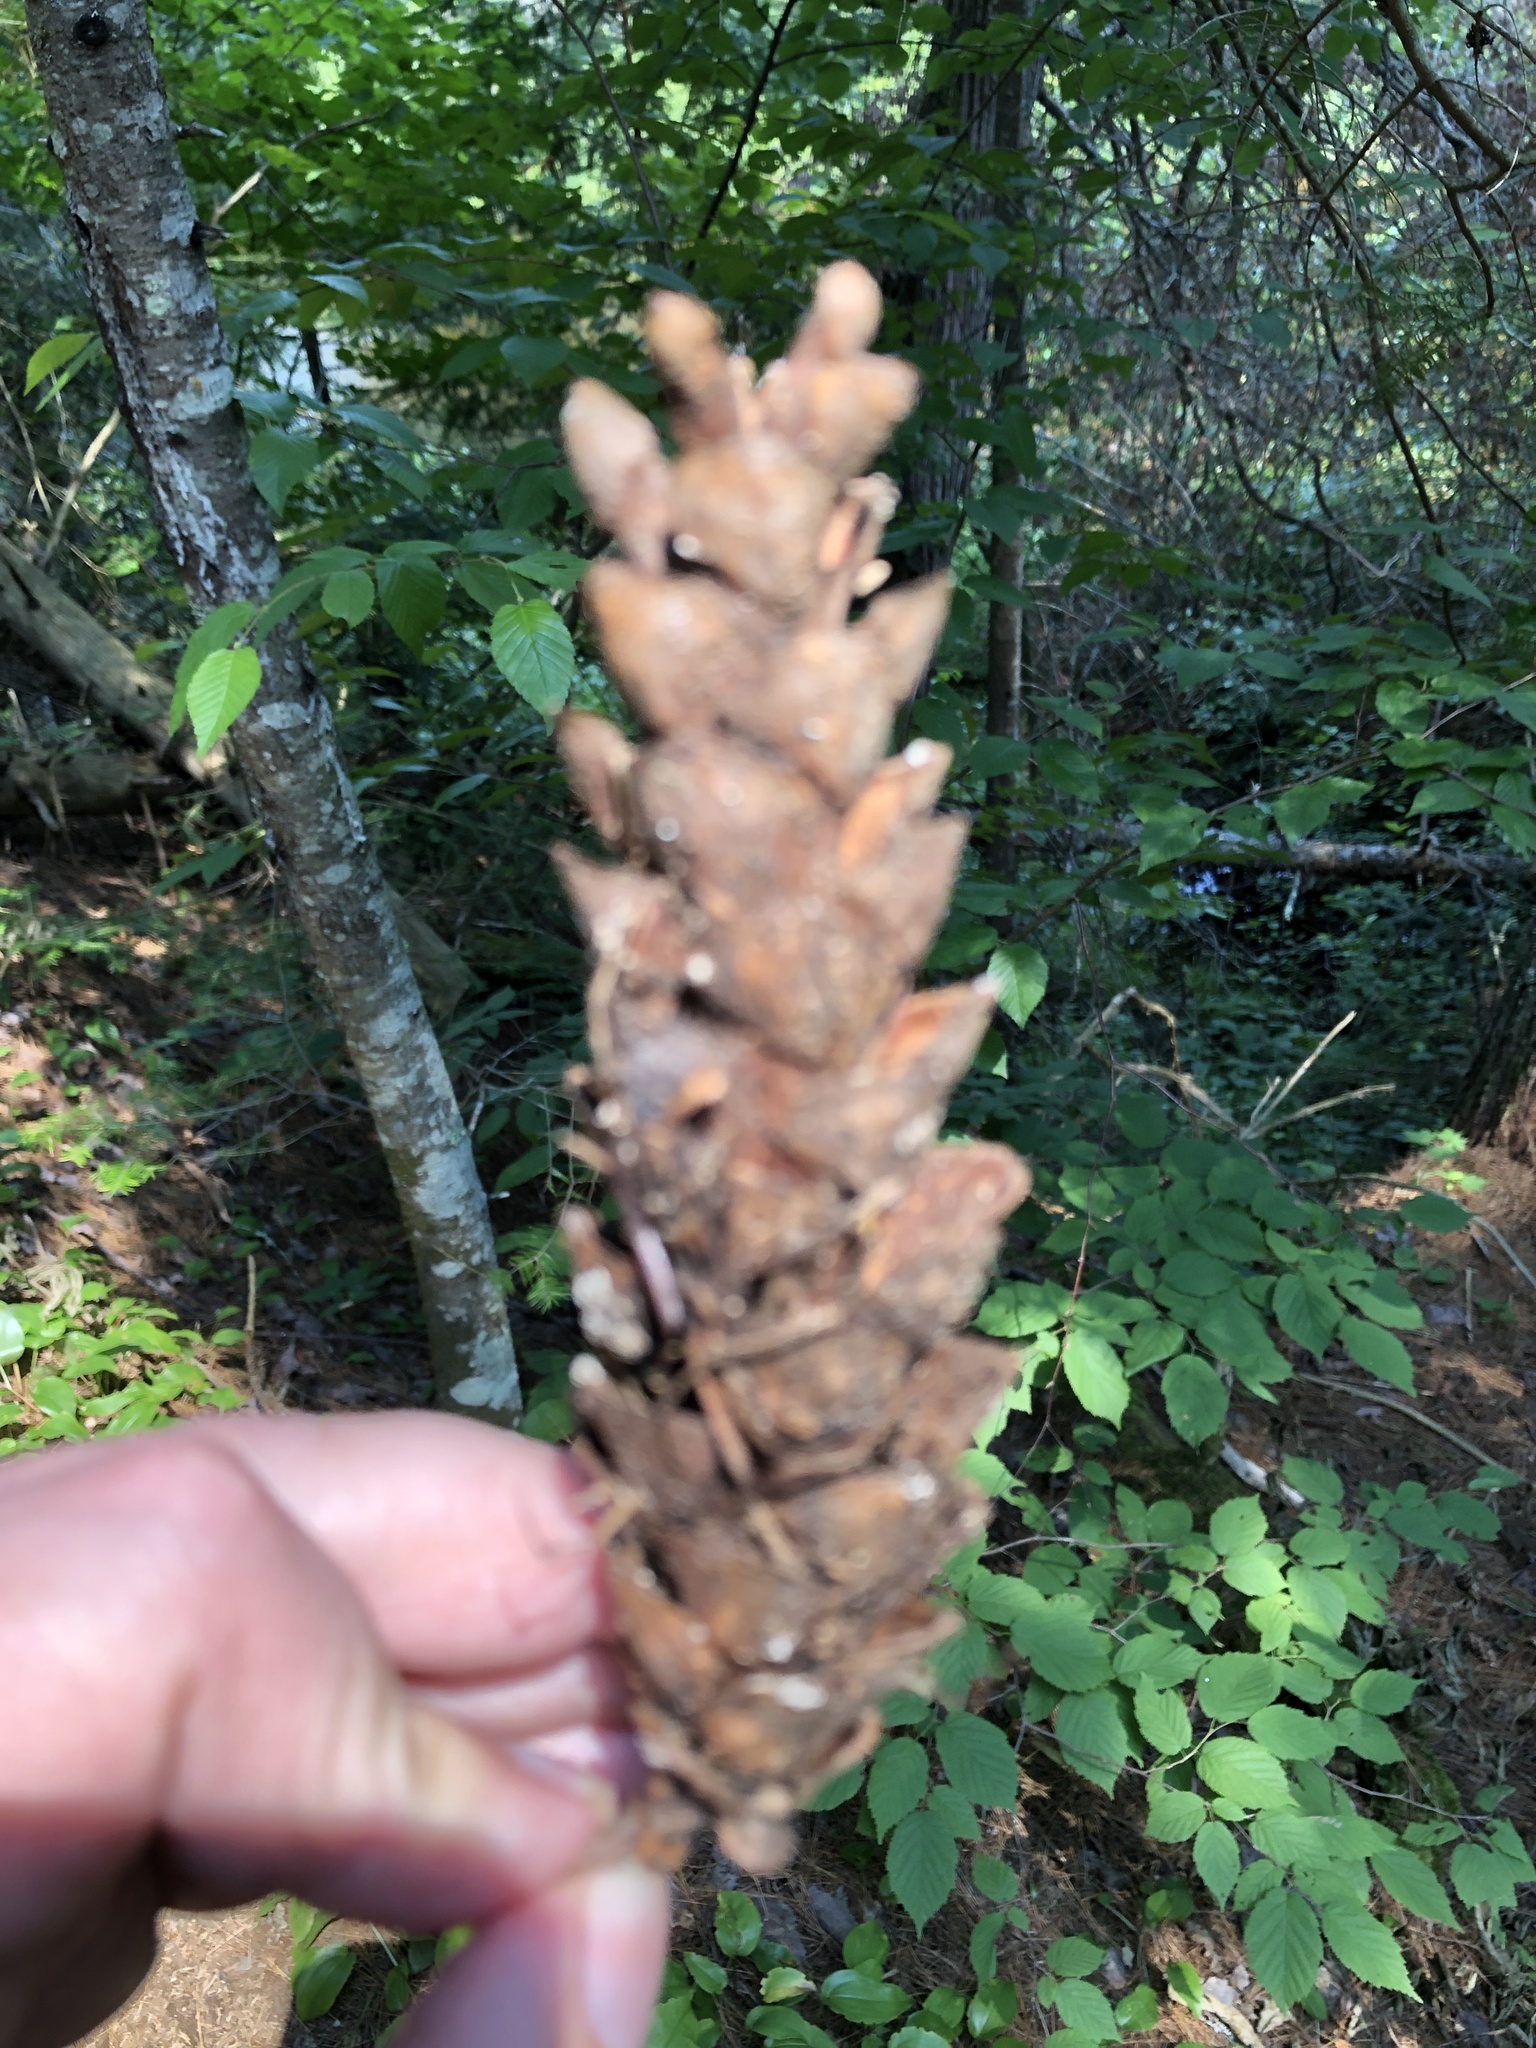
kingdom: Plantae
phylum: Tracheophyta
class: Pinopsida
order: Pinales
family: Pinaceae
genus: Pinus
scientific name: Pinus strobus
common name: Weymouth pine
